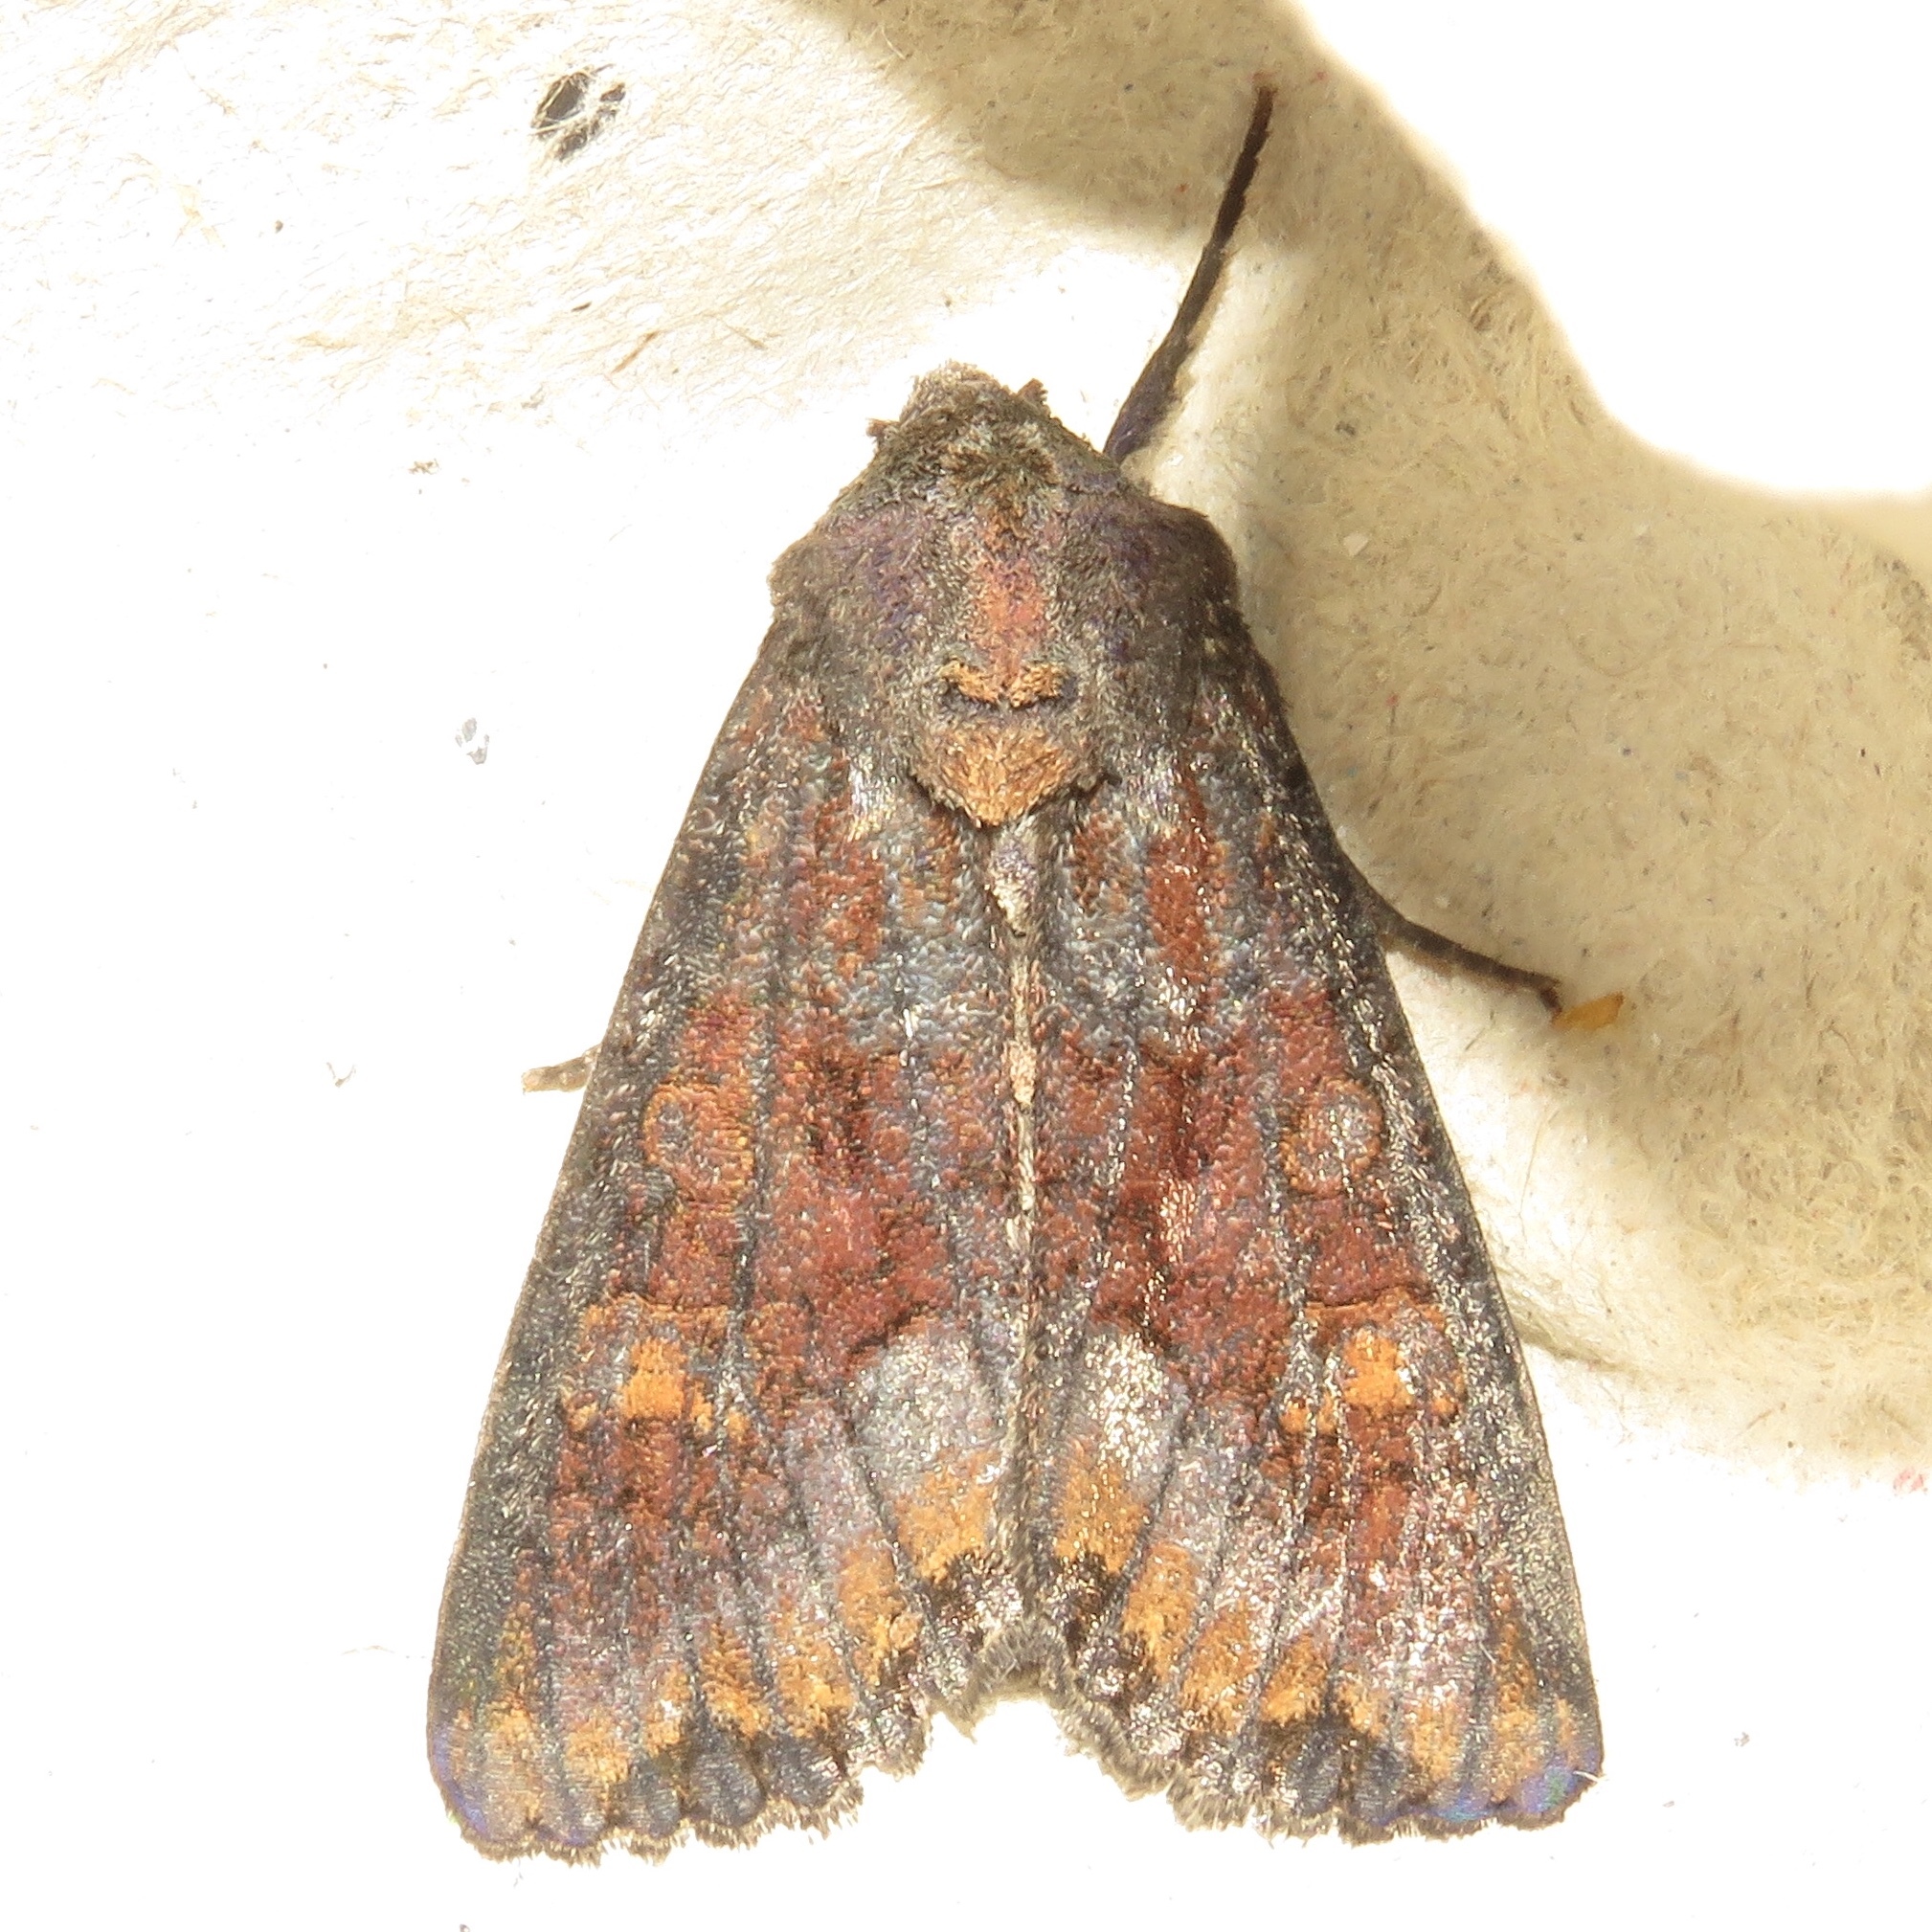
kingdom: Animalia
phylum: Arthropoda
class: Insecta
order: Lepidoptera
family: Noctuidae
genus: Apamea
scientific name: Apamea amputatrix
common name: Yellow-headed cutworm moth
